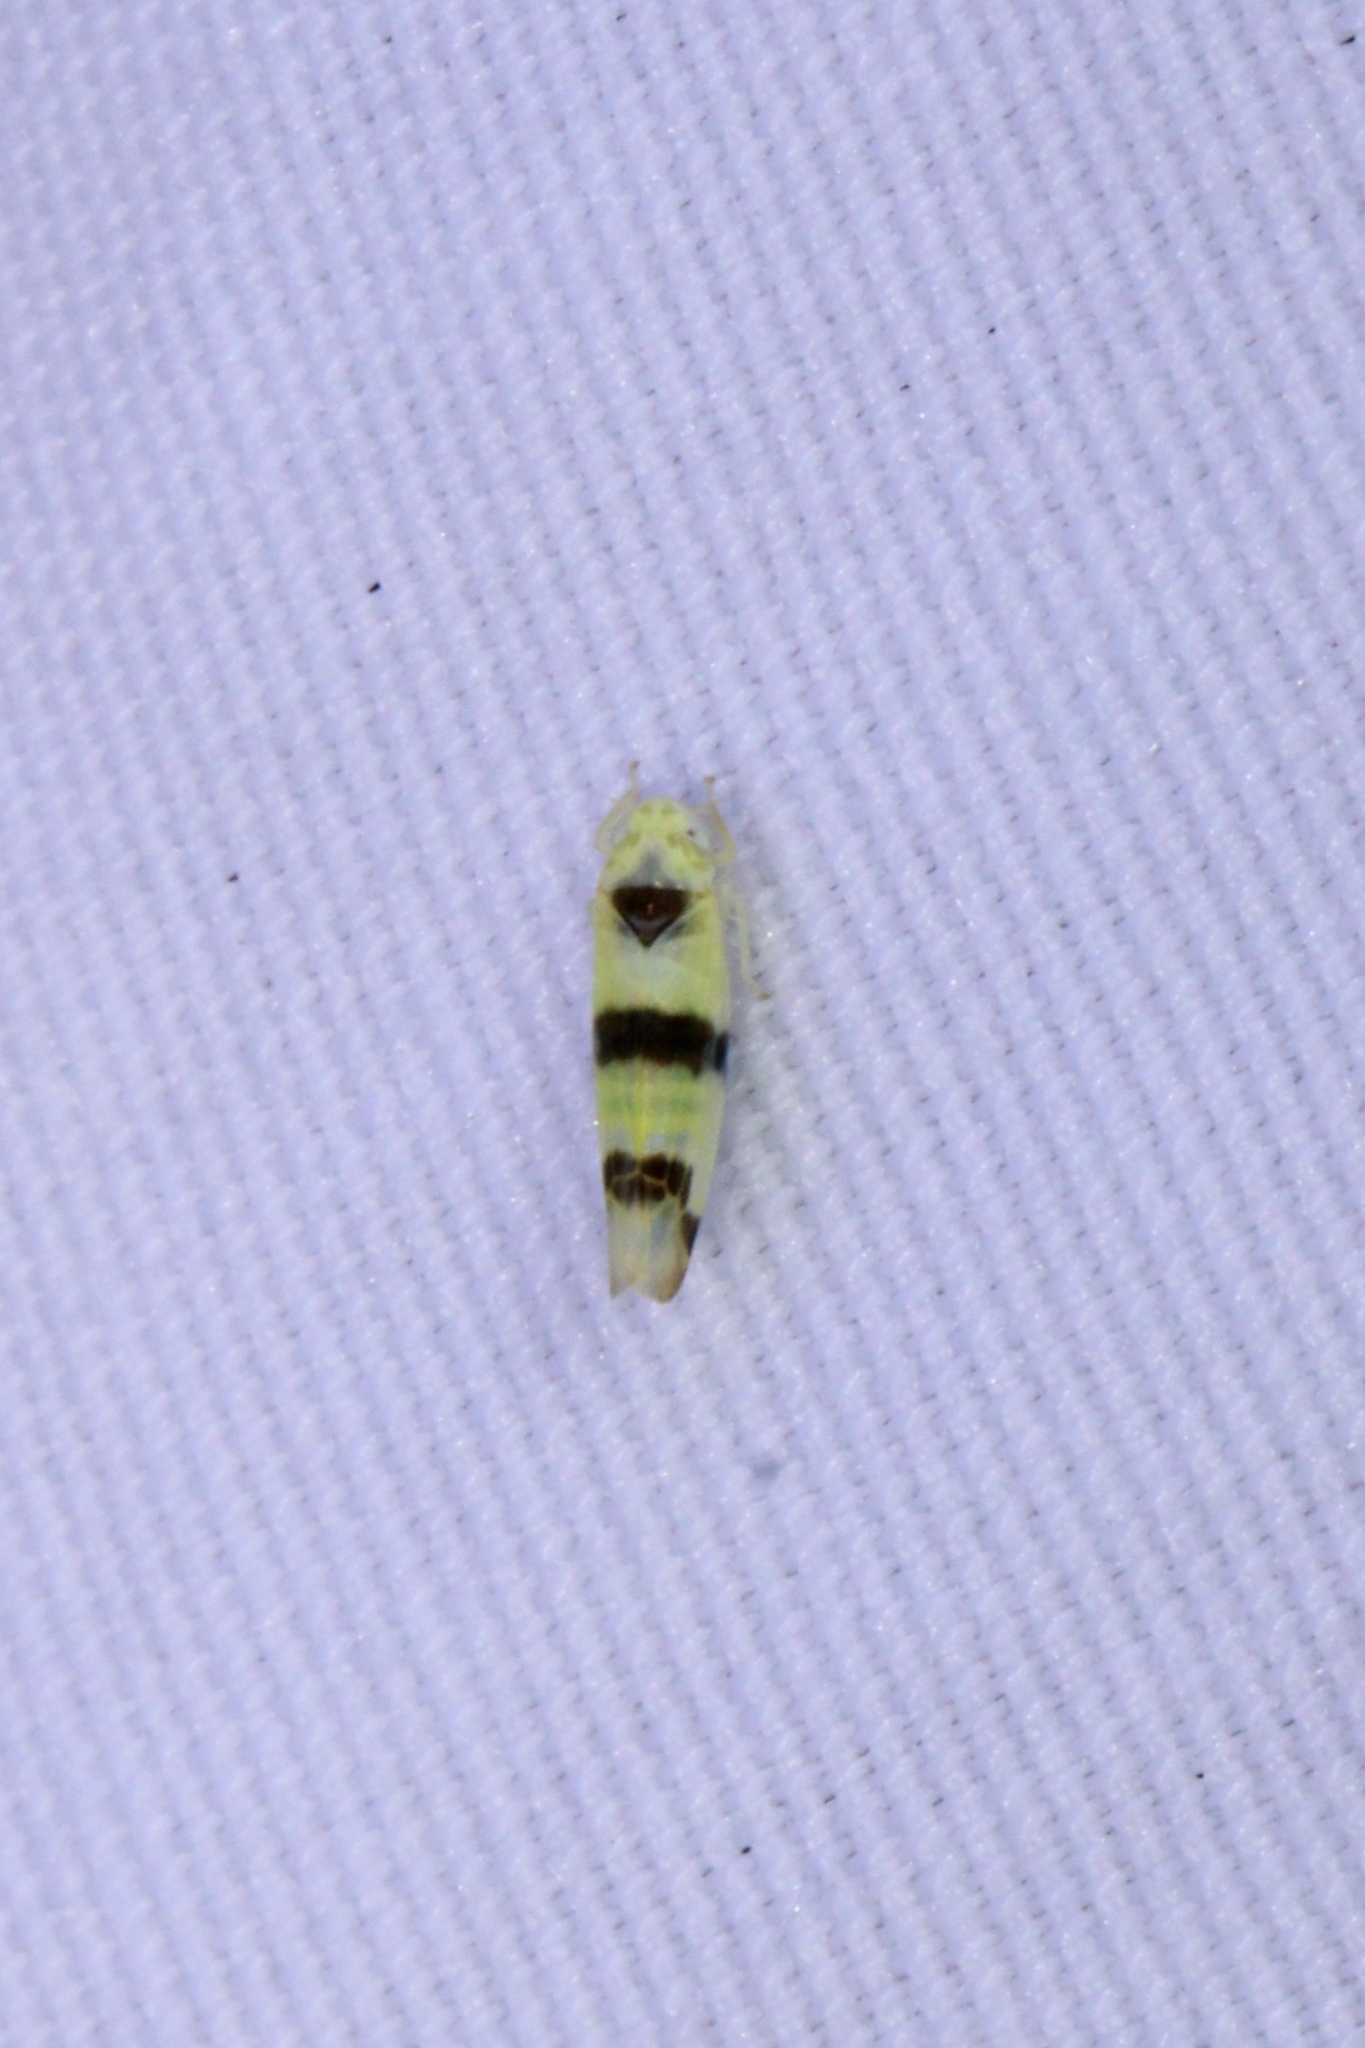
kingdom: Animalia
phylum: Arthropoda
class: Insecta
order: Hemiptera
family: Cicadellidae
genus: Empoa
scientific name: Empoa gillettei
